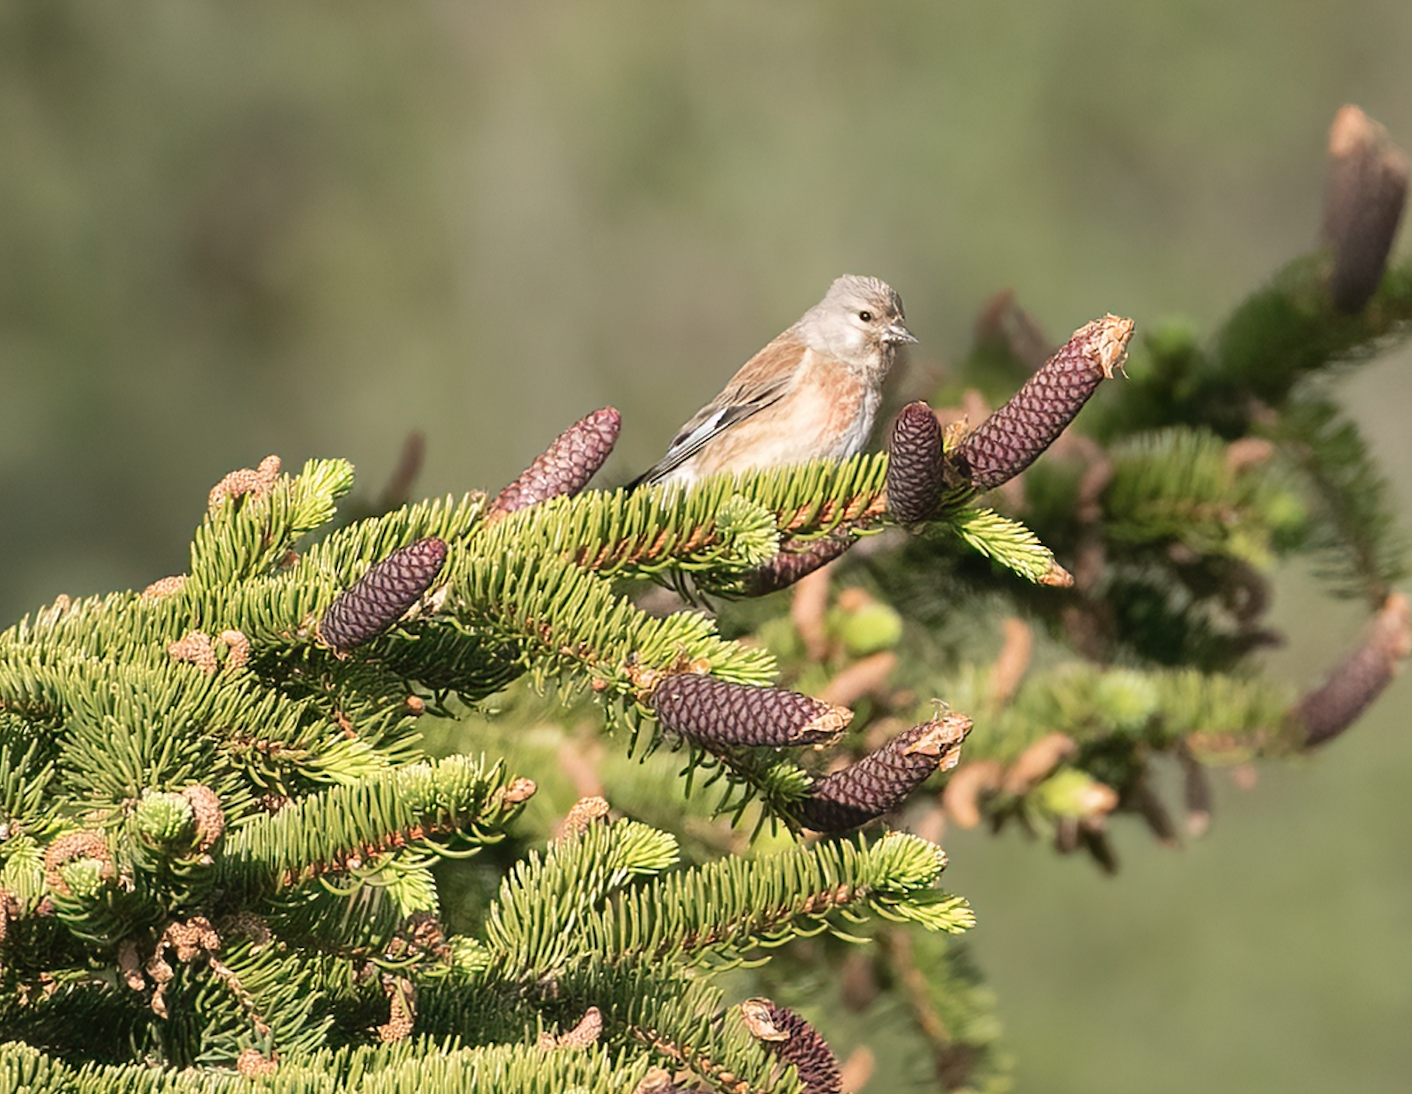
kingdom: Animalia
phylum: Chordata
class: Aves
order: Passeriformes
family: Fringillidae
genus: Linaria
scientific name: Linaria cannabina
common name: Common linnet
